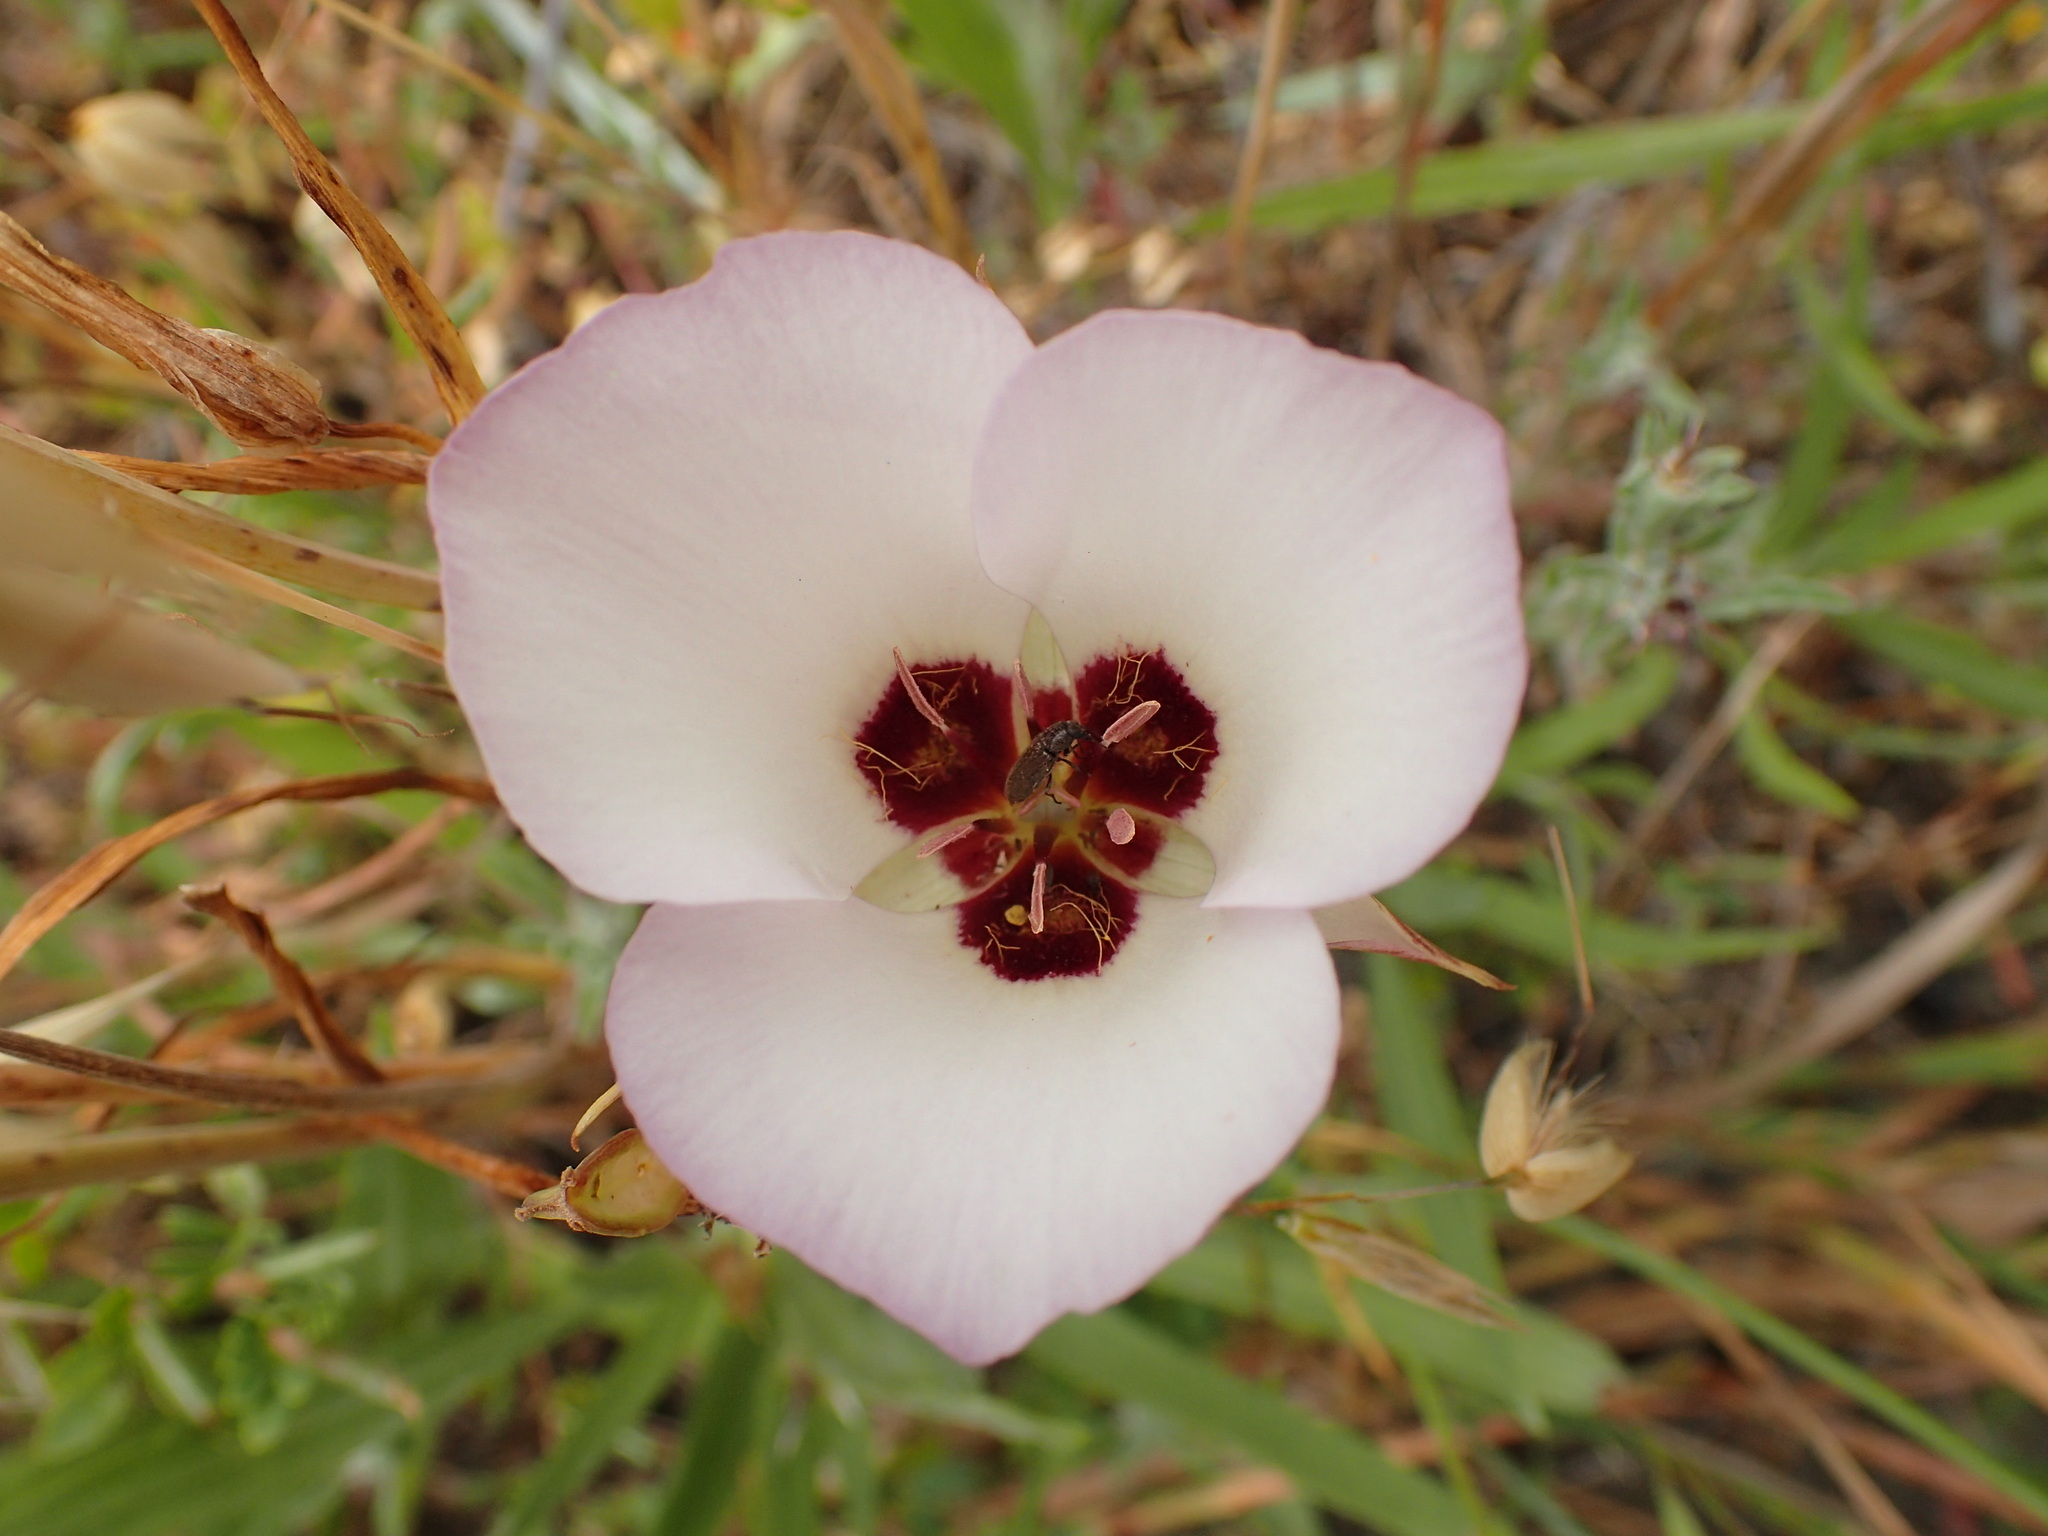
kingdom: Plantae
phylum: Tracheophyta
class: Liliopsida
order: Liliales
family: Liliaceae
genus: Calochortus
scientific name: Calochortus catalinae
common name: Catalina mariposa-lily
